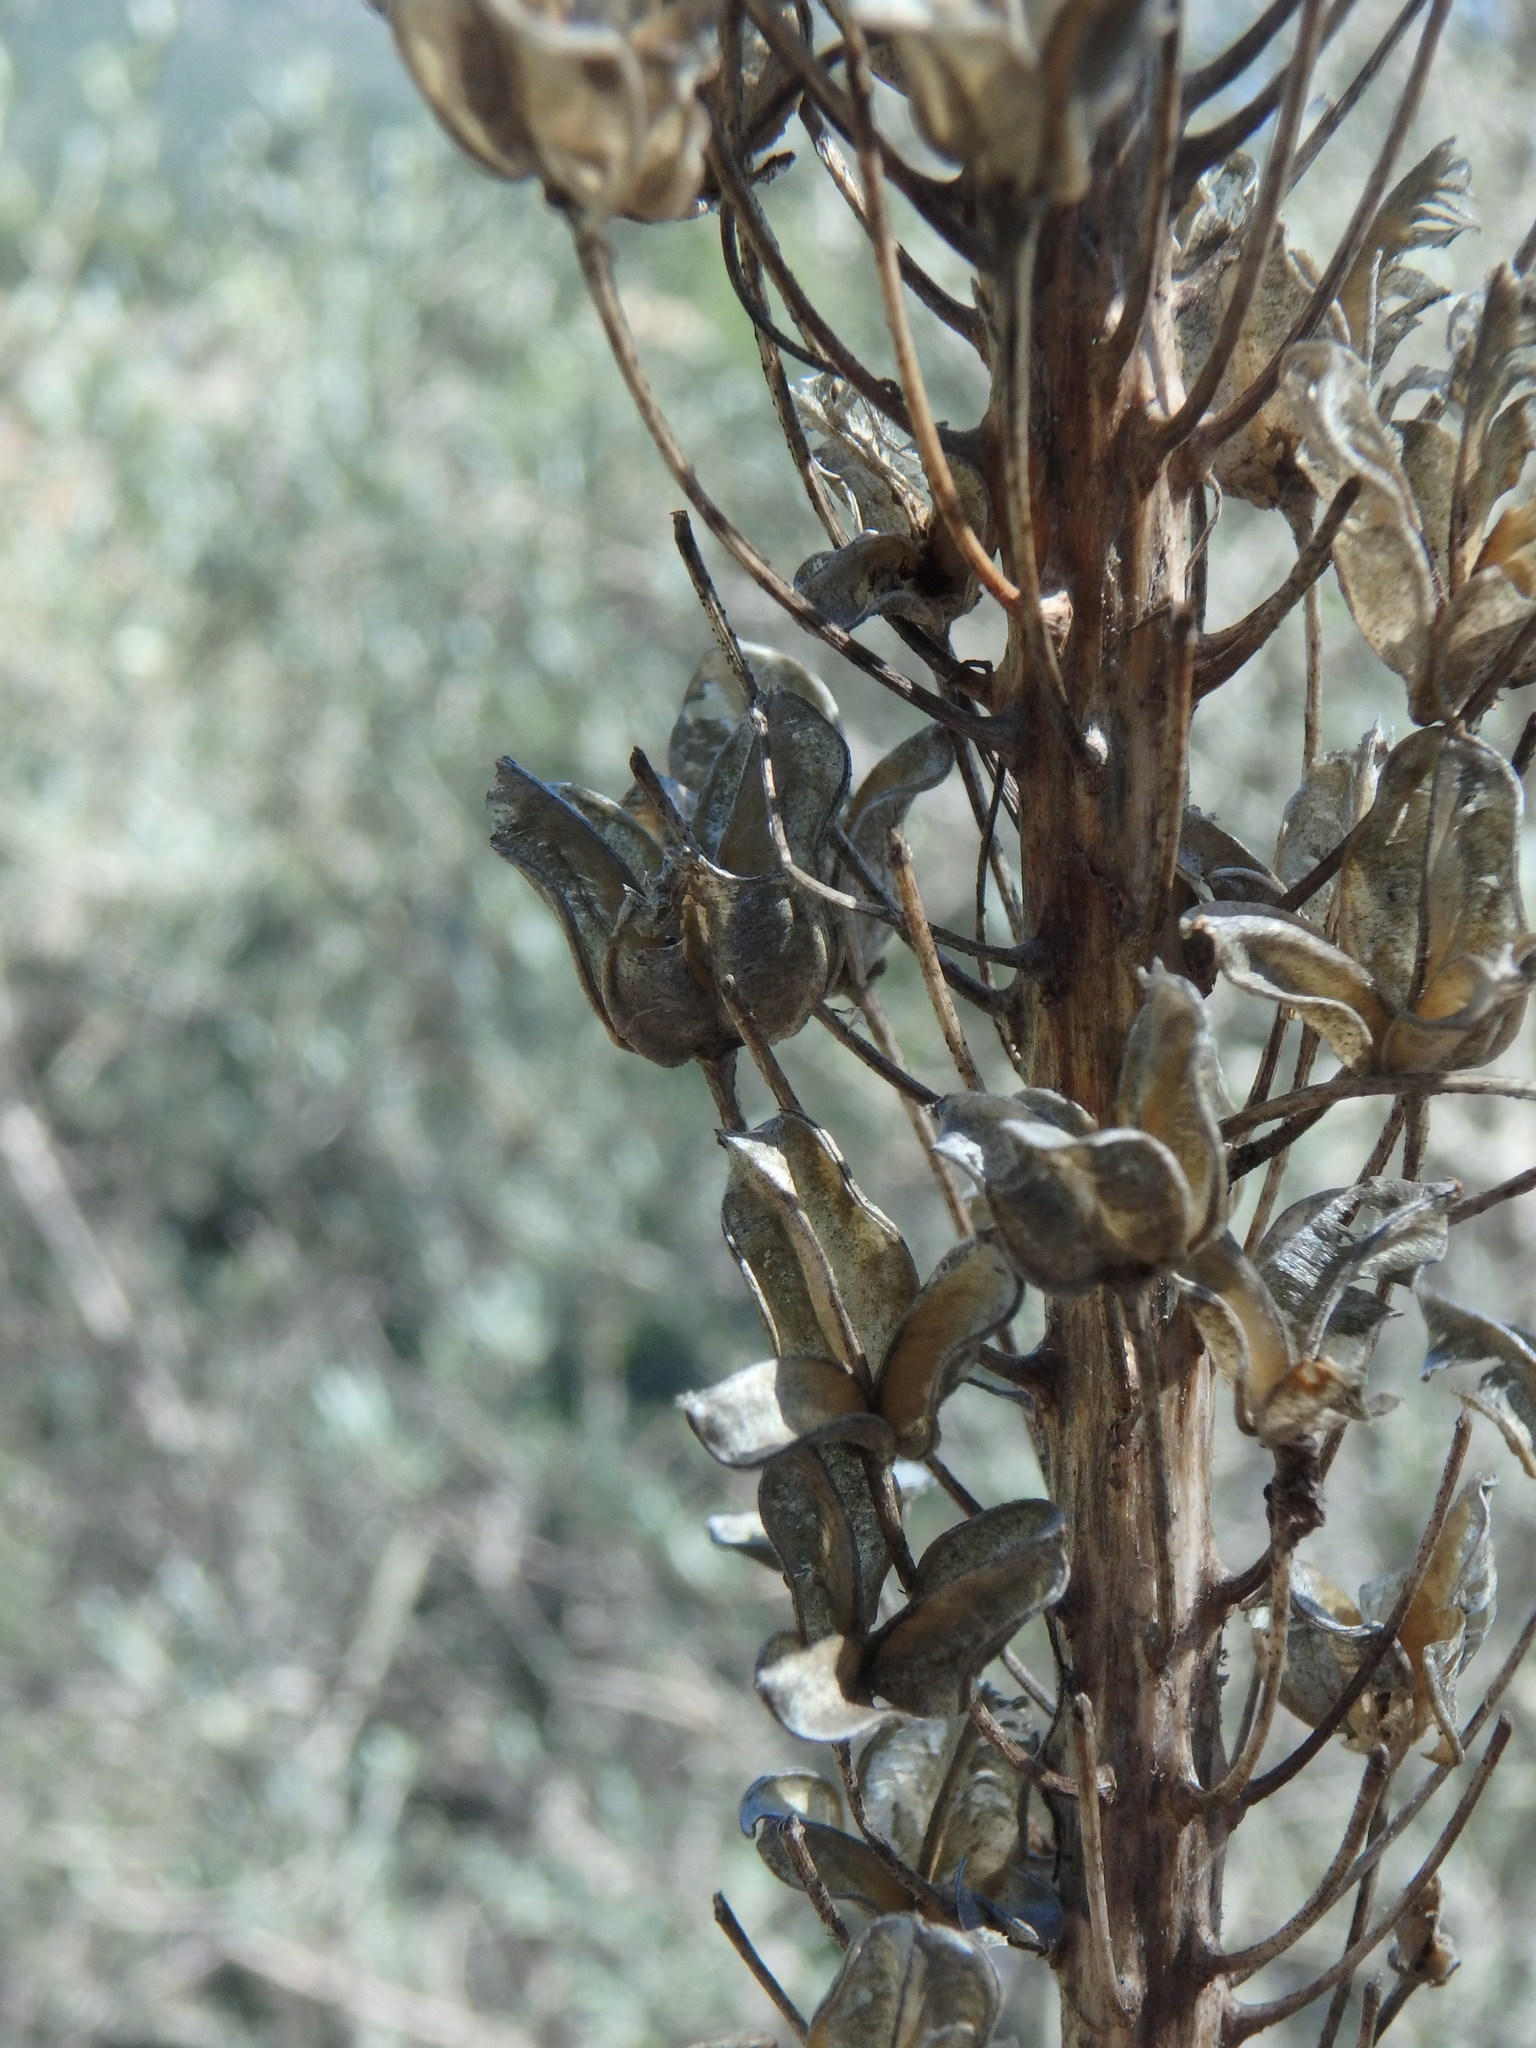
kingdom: Plantae
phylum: Tracheophyta
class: Liliopsida
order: Asparagales
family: Asparagaceae
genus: Drimia
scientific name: Drimia maritima
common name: Maritime squill
